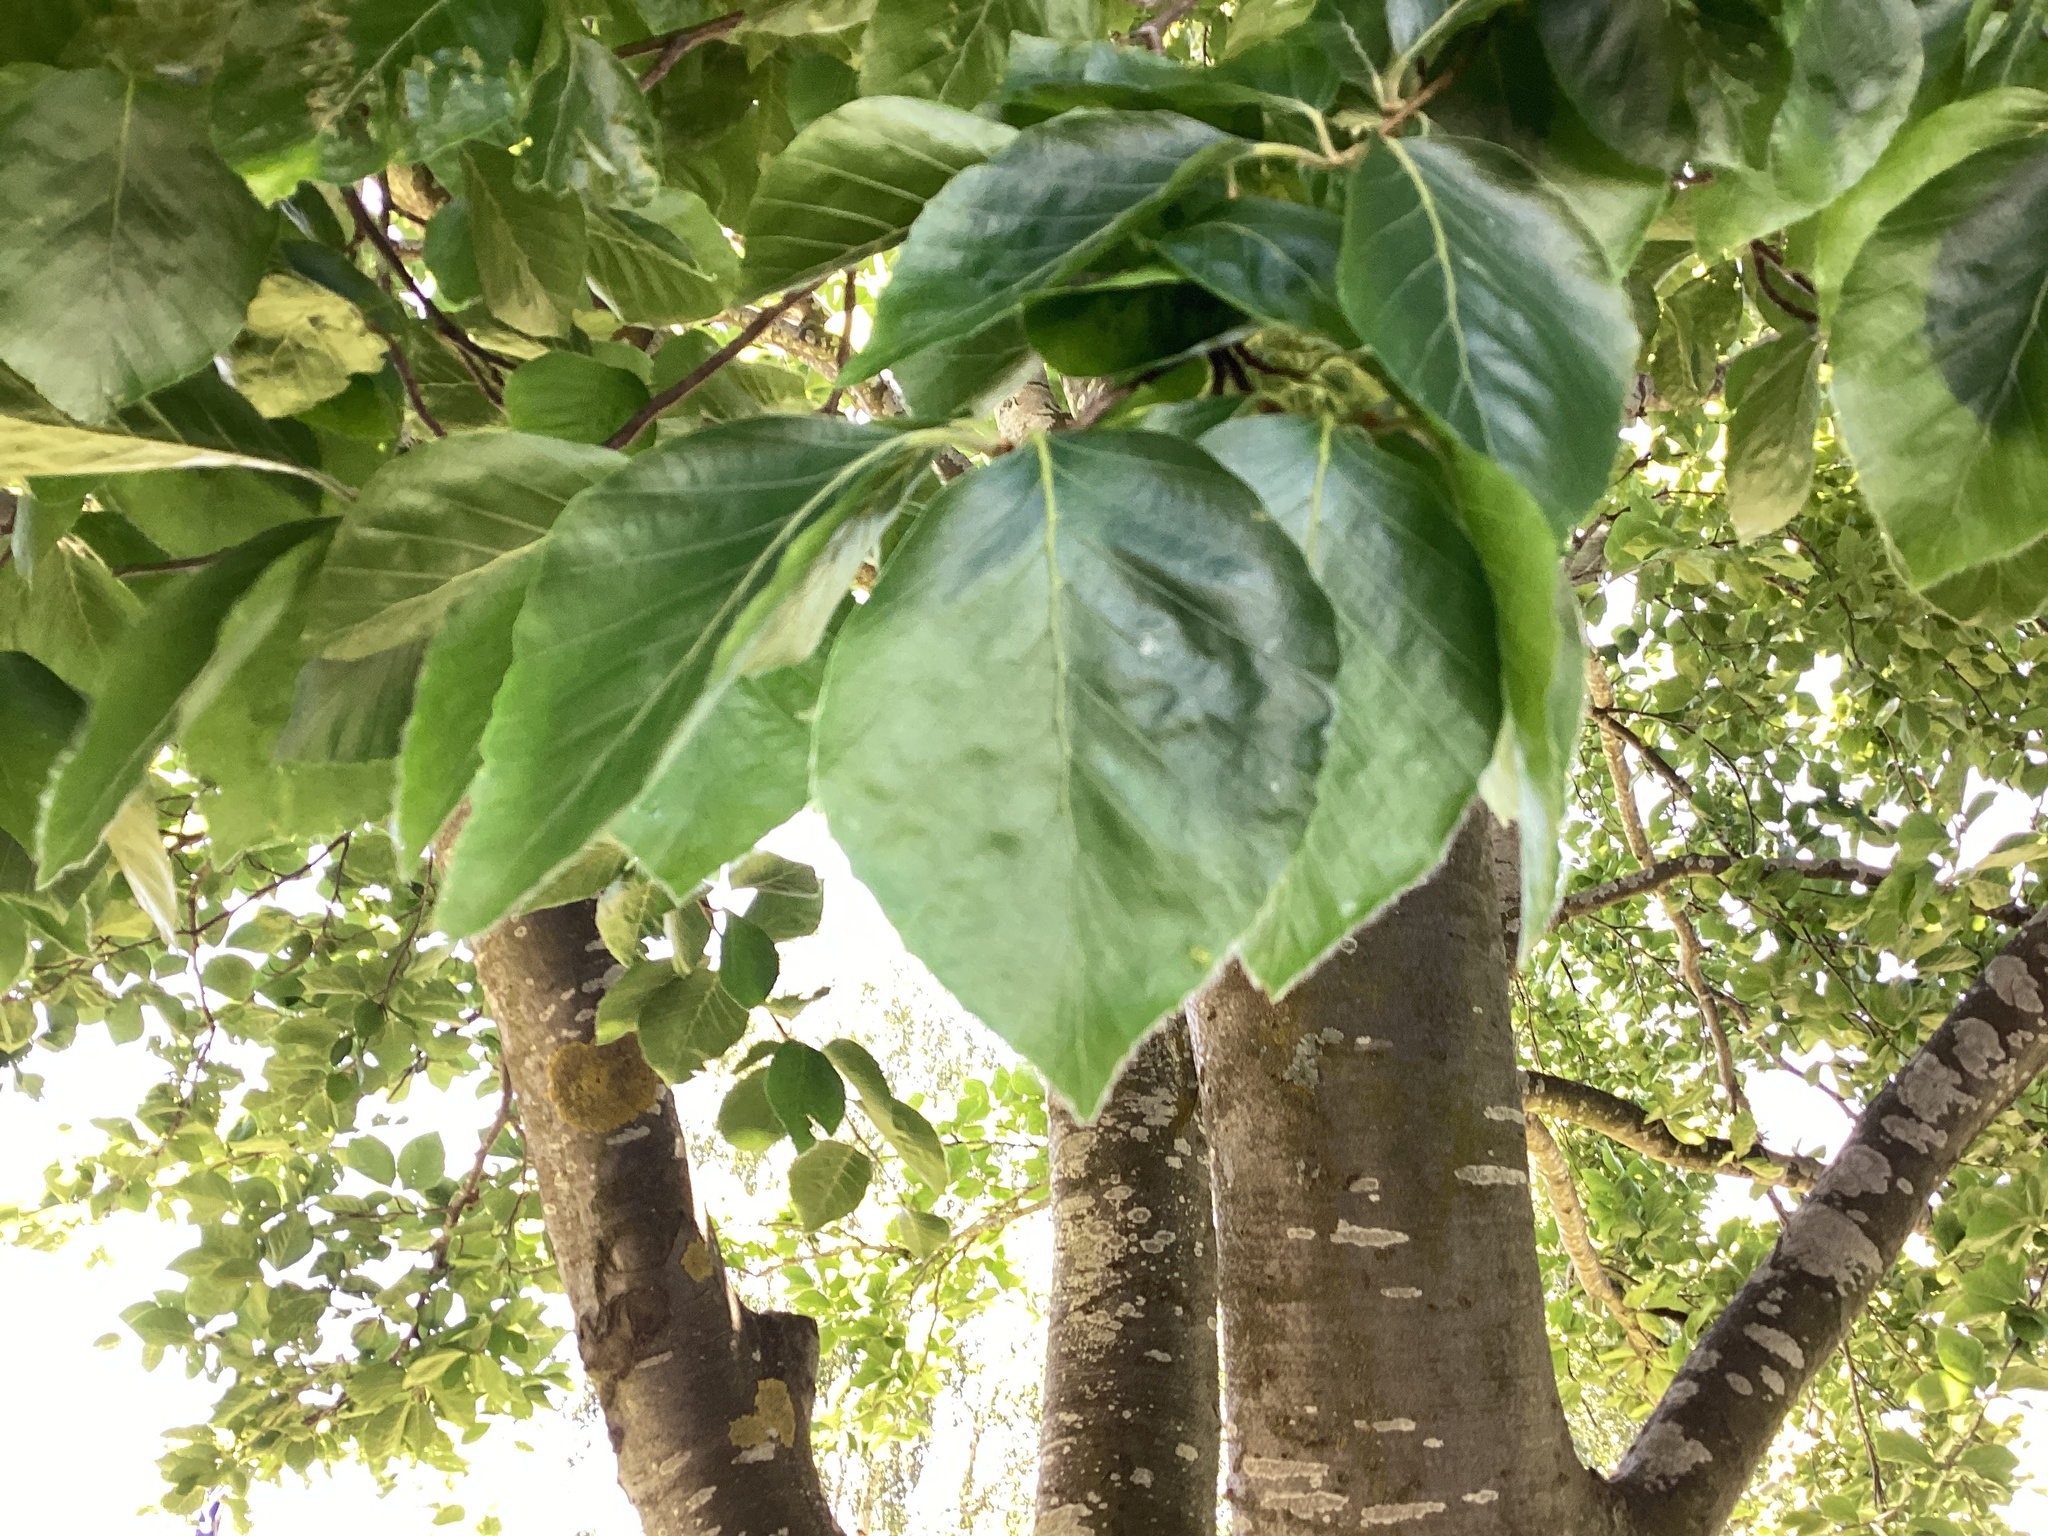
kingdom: Plantae
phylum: Tracheophyta
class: Magnoliopsida
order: Fagales
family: Fagaceae
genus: Fagus
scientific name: Fagus sylvatica
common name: Beech
